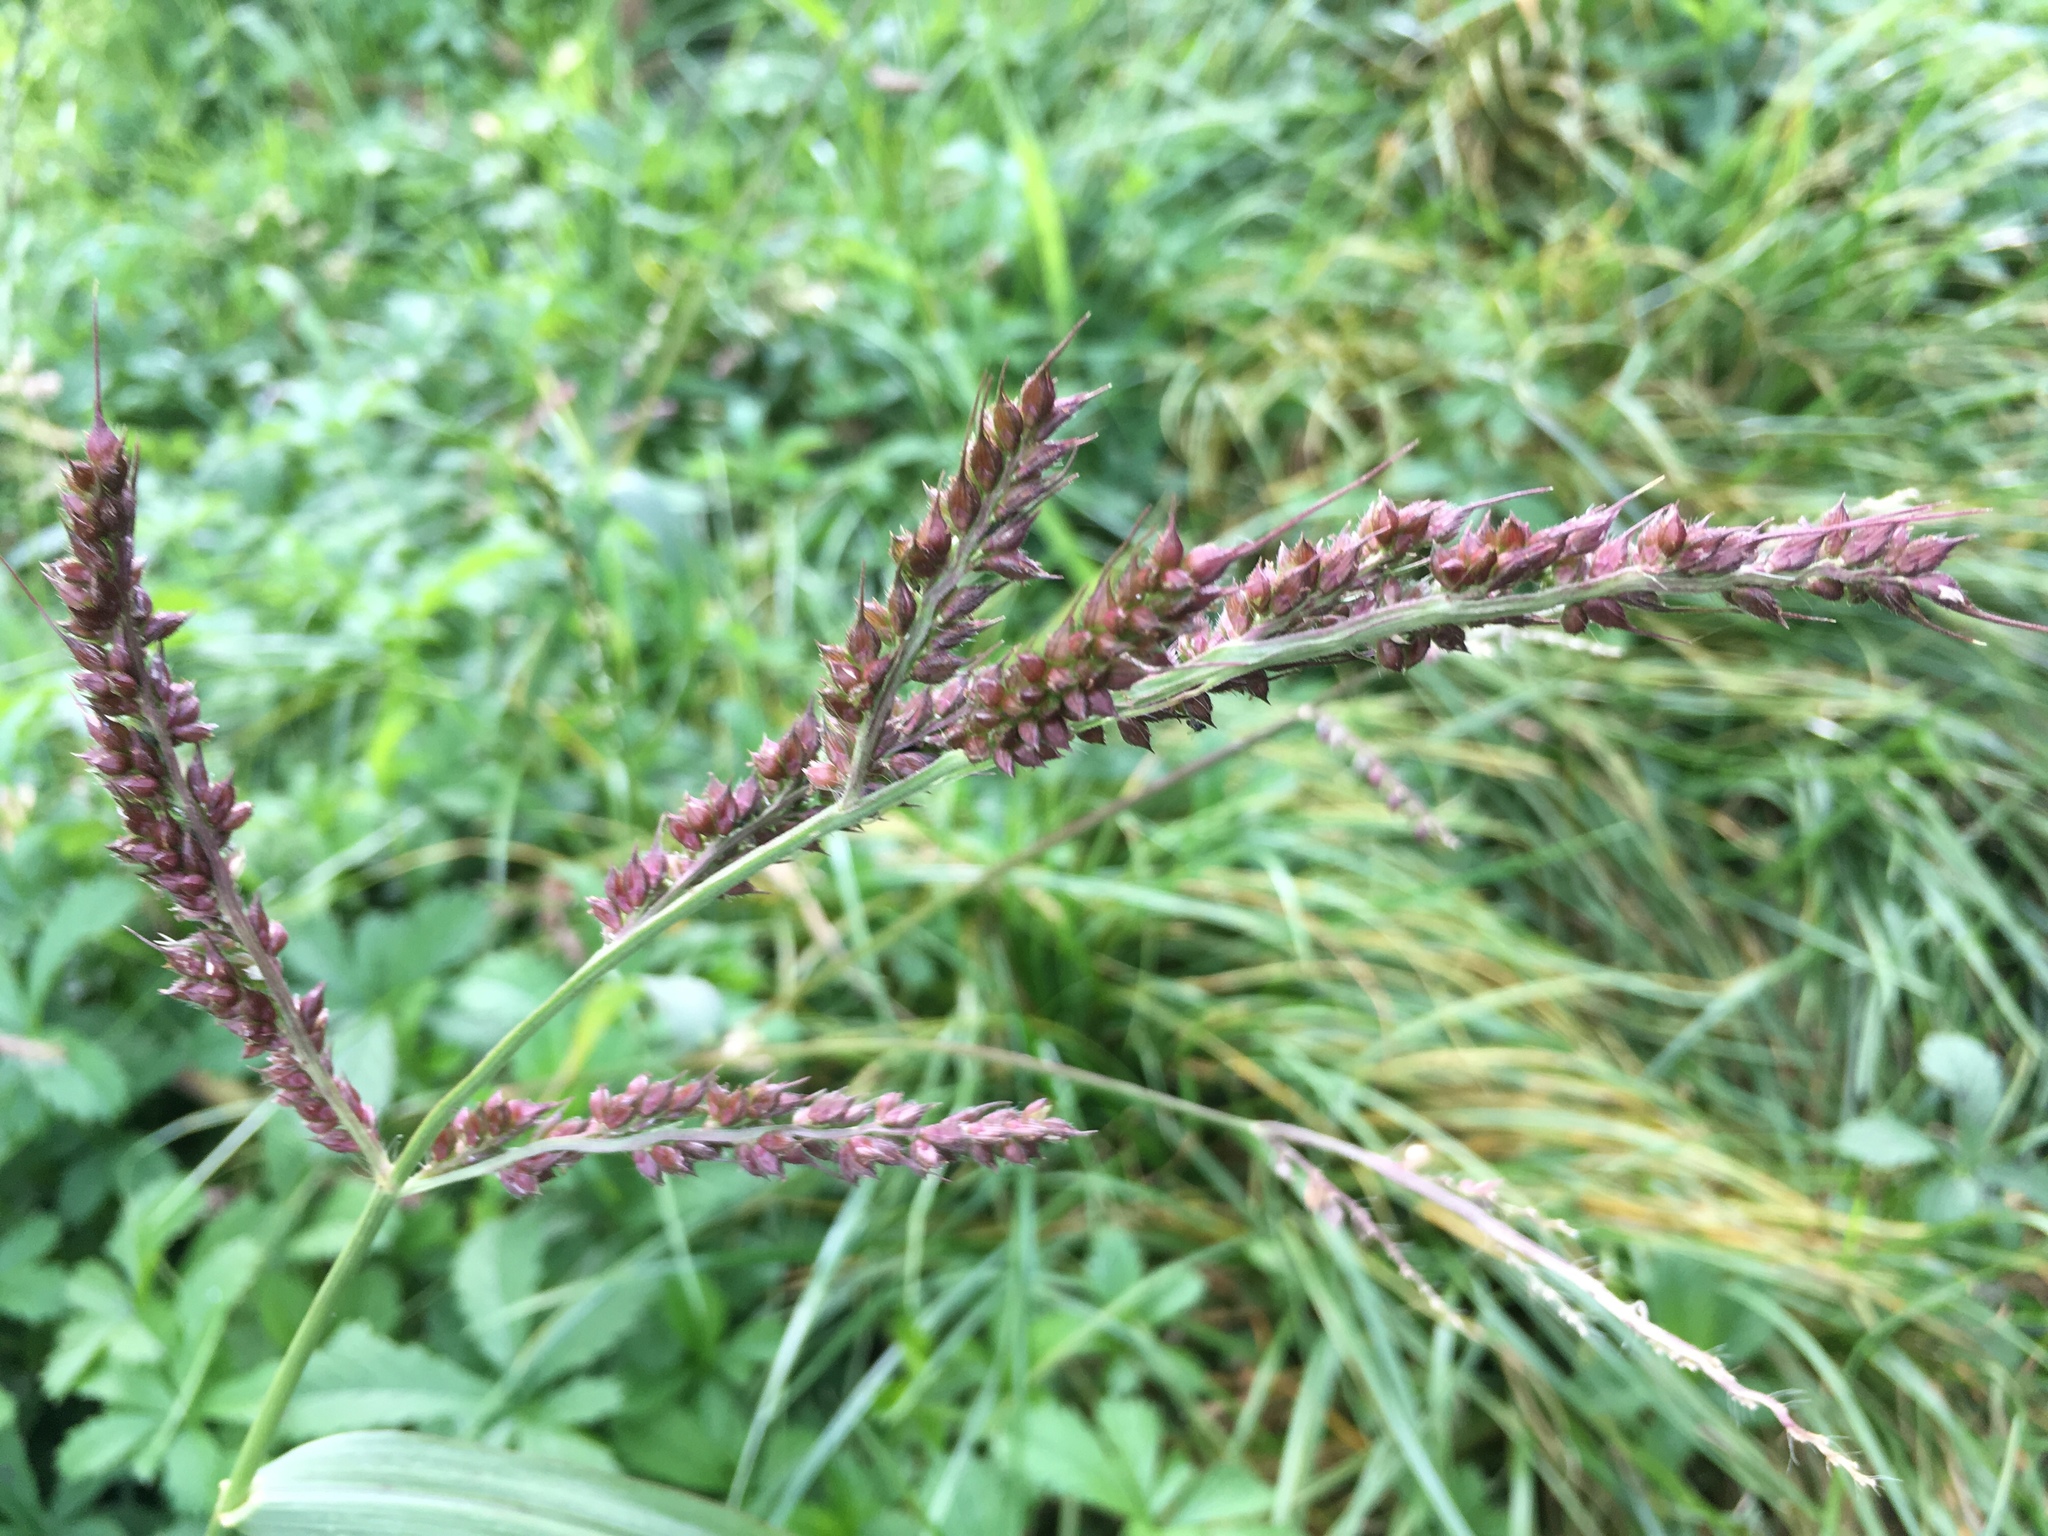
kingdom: Plantae
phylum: Tracheophyta
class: Liliopsida
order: Poales
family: Poaceae
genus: Echinochloa
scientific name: Echinochloa crus-galli
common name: Cockspur
